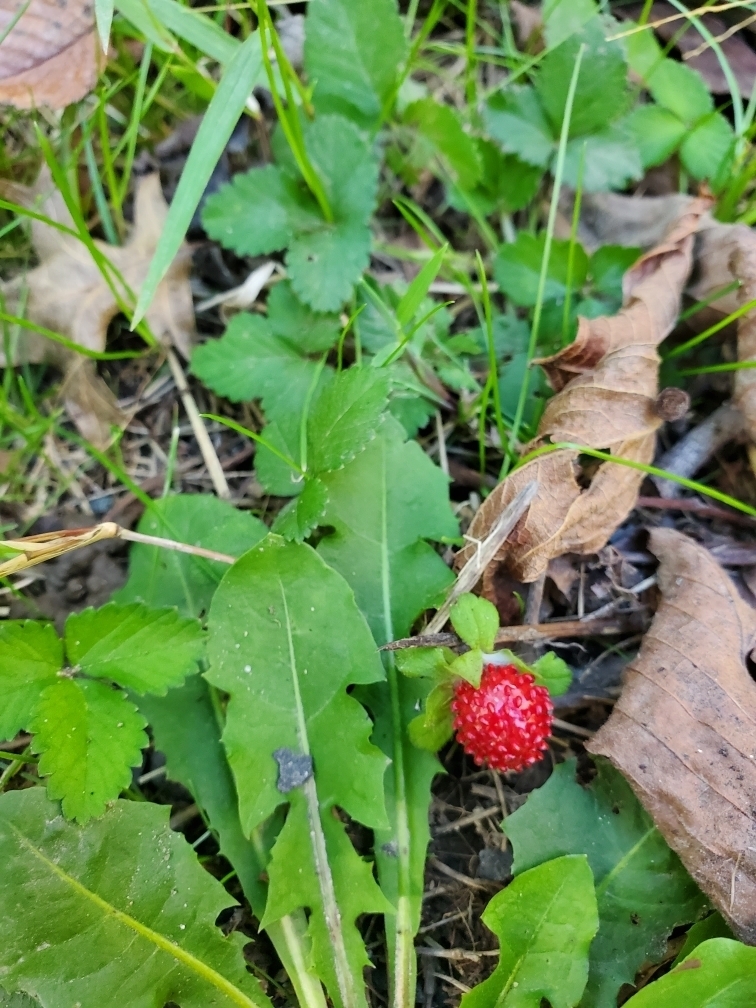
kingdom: Plantae
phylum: Tracheophyta
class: Magnoliopsida
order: Rosales
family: Rosaceae
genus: Potentilla
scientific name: Potentilla indica
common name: Yellow-flowered strawberry
